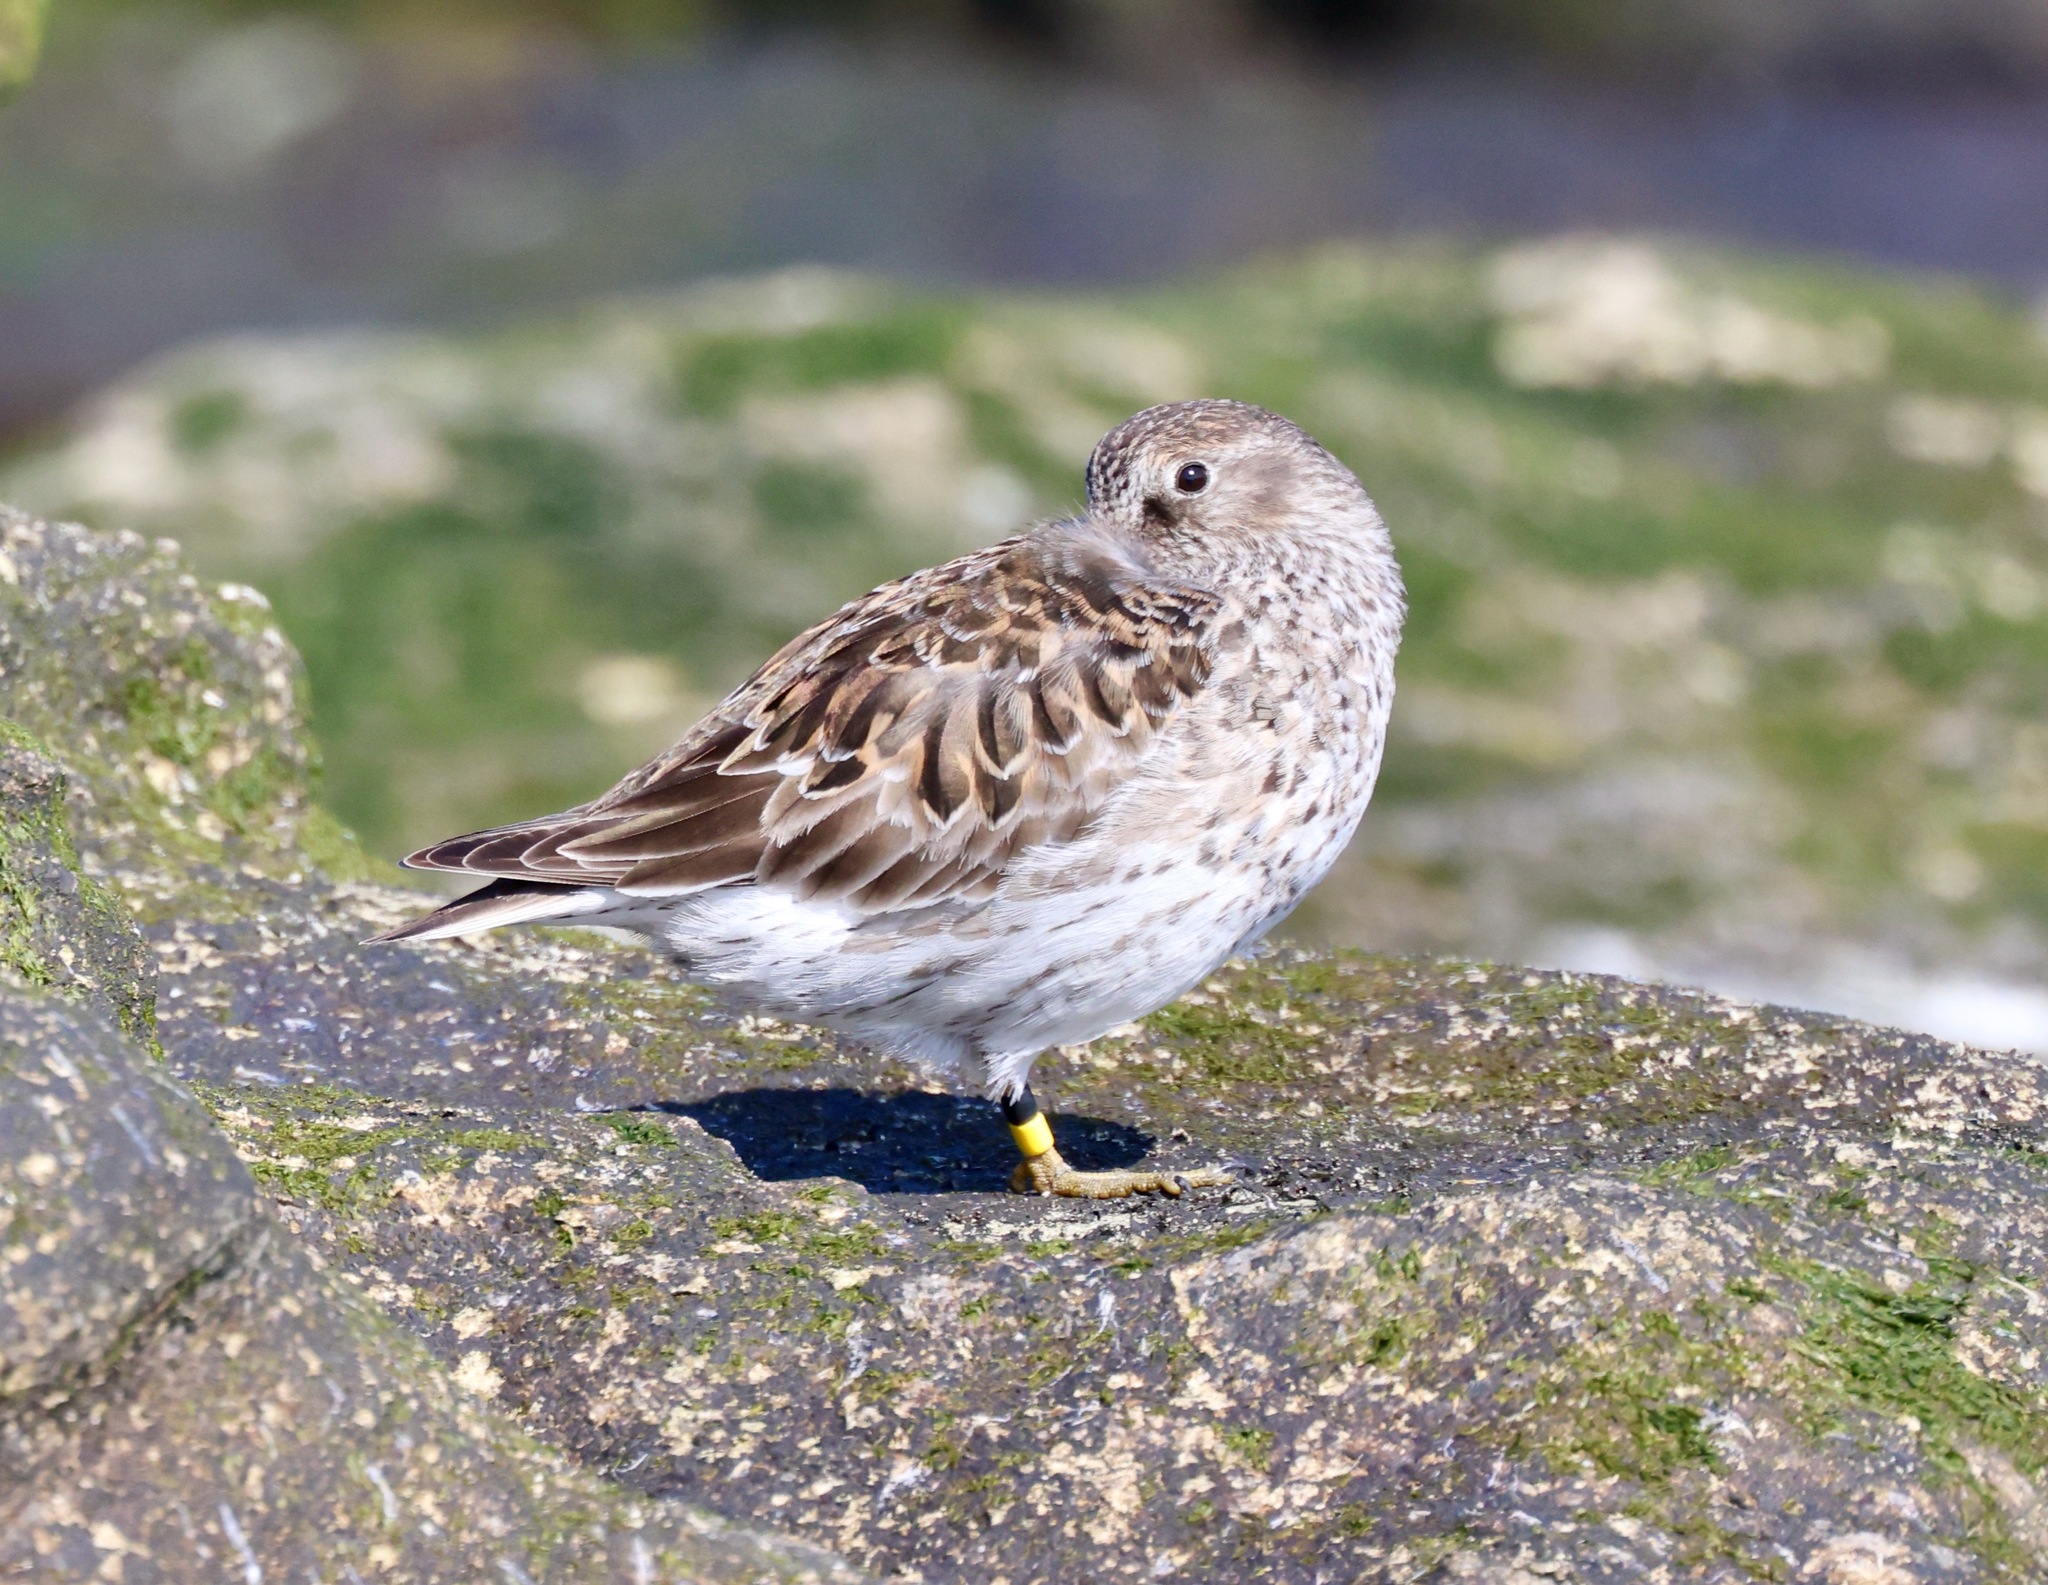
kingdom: Animalia
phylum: Chordata
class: Aves
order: Charadriiformes
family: Scolopacidae
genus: Calidris
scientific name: Calidris maritima
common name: Purple sandpiper
